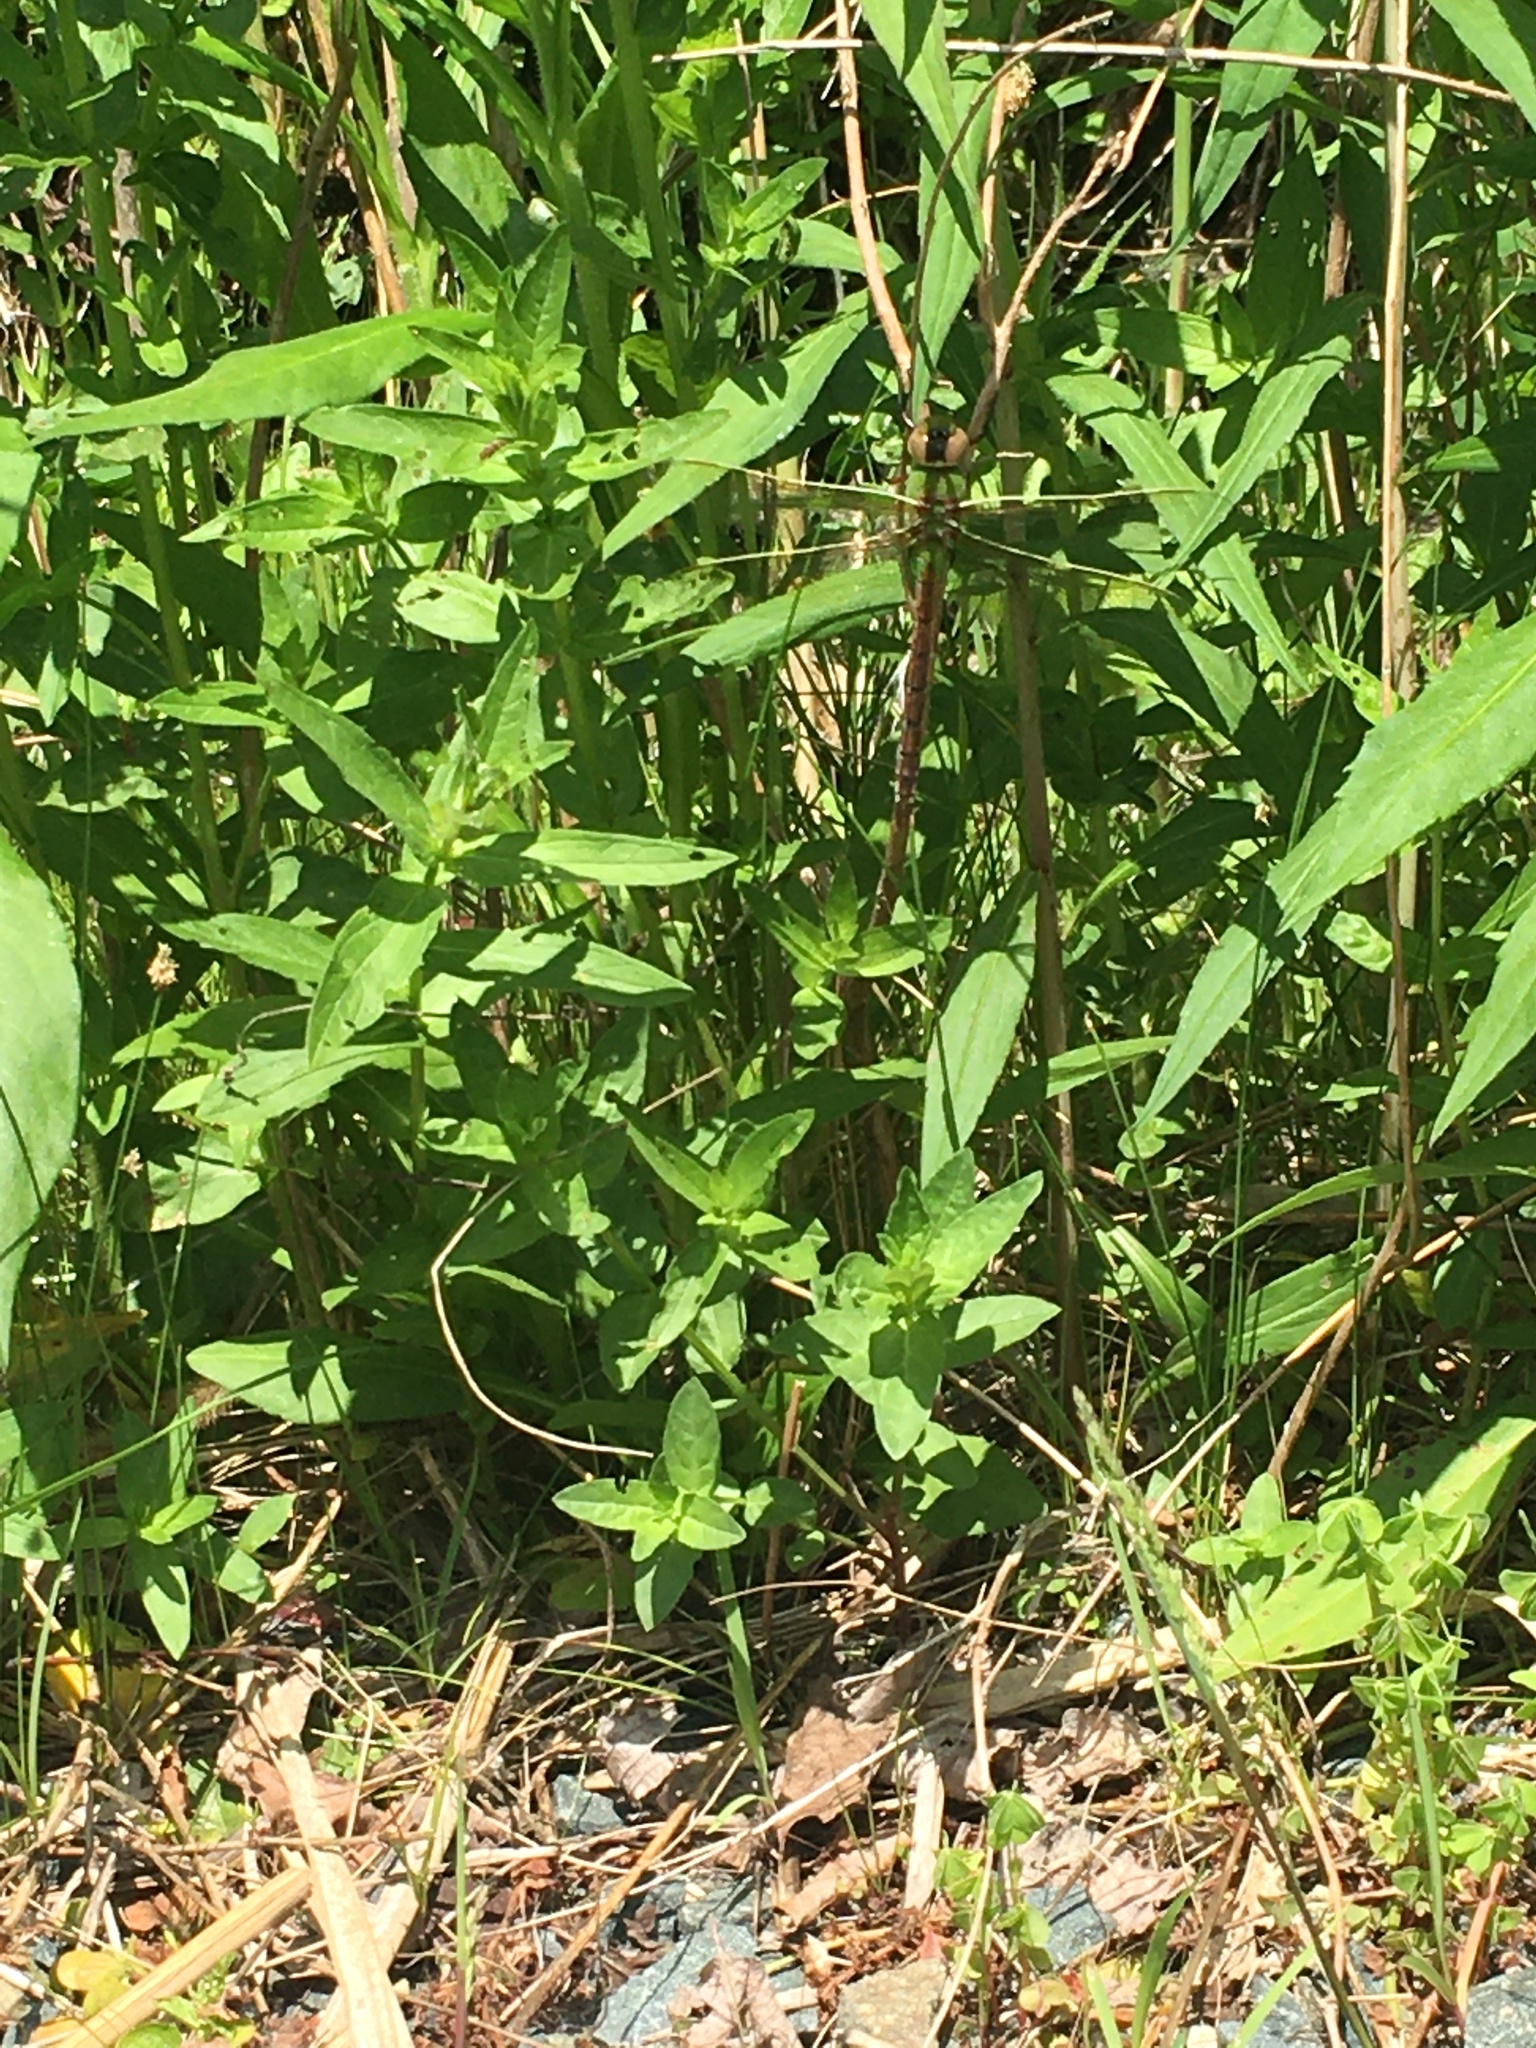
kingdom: Animalia
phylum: Arthropoda
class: Insecta
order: Odonata
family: Aeshnidae
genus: Anax
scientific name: Anax junius
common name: Common green darner
